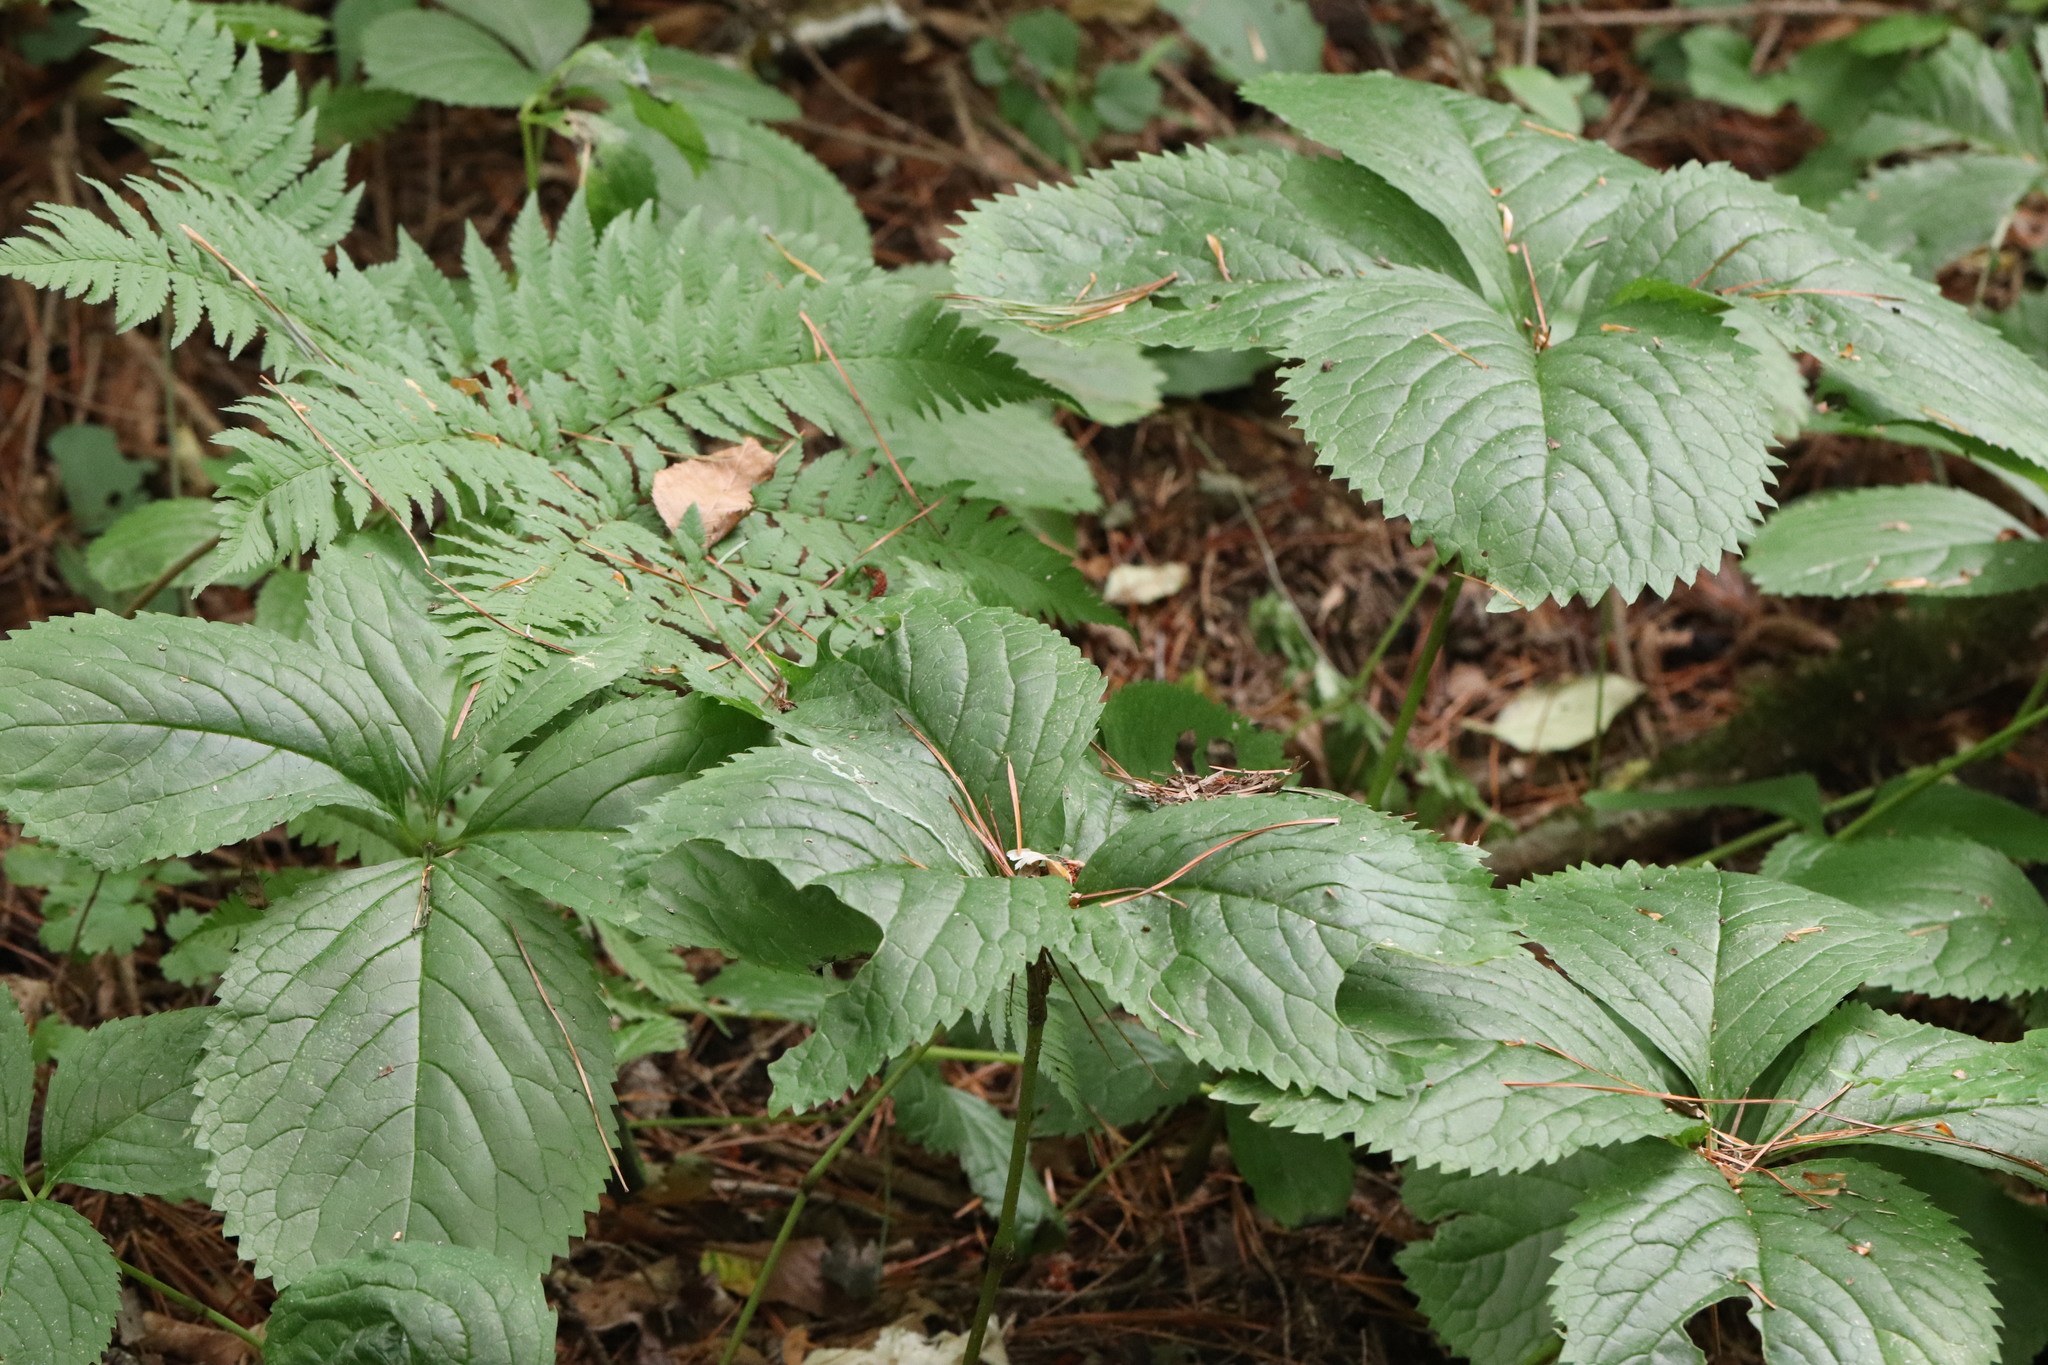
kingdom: Plantae
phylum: Tracheophyta
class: Magnoliopsida
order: Chloranthales
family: Chloranthaceae
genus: Chloranthus
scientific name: Chloranthus quadrifolius
